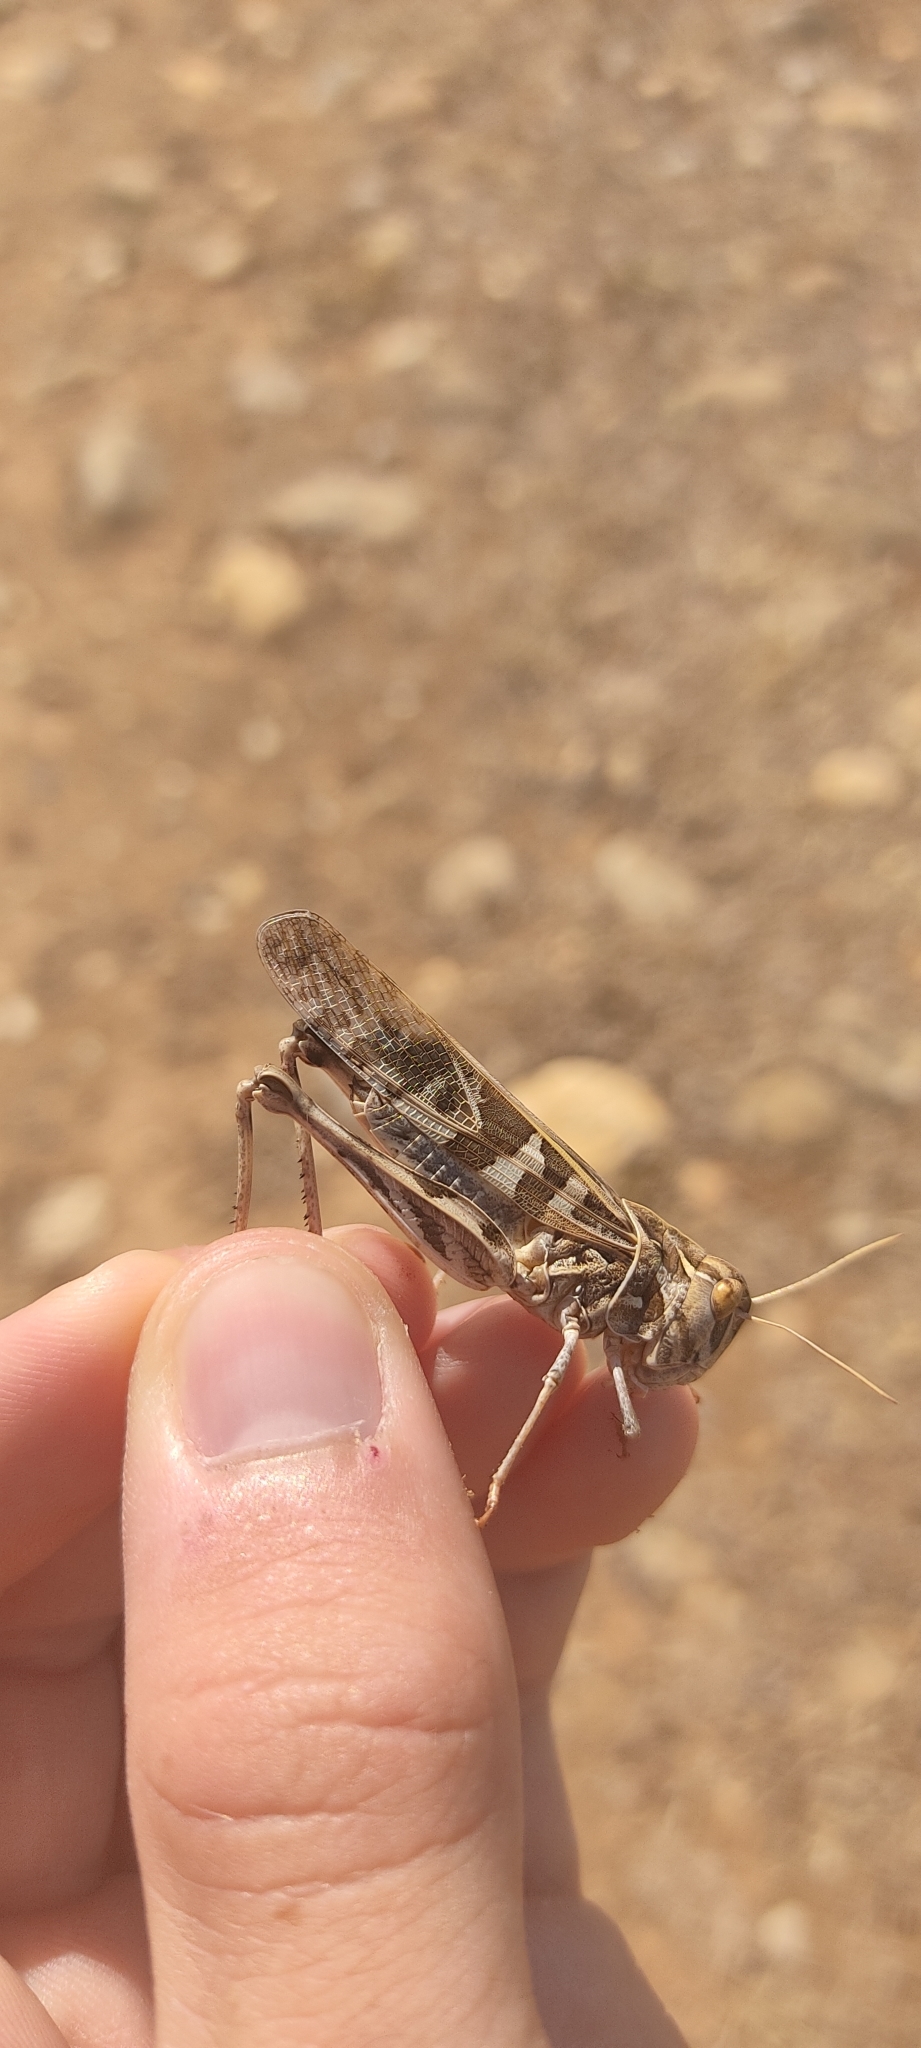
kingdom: Animalia
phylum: Arthropoda
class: Insecta
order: Orthoptera
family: Acrididae
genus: Oedaleus
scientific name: Oedaleus decorus
